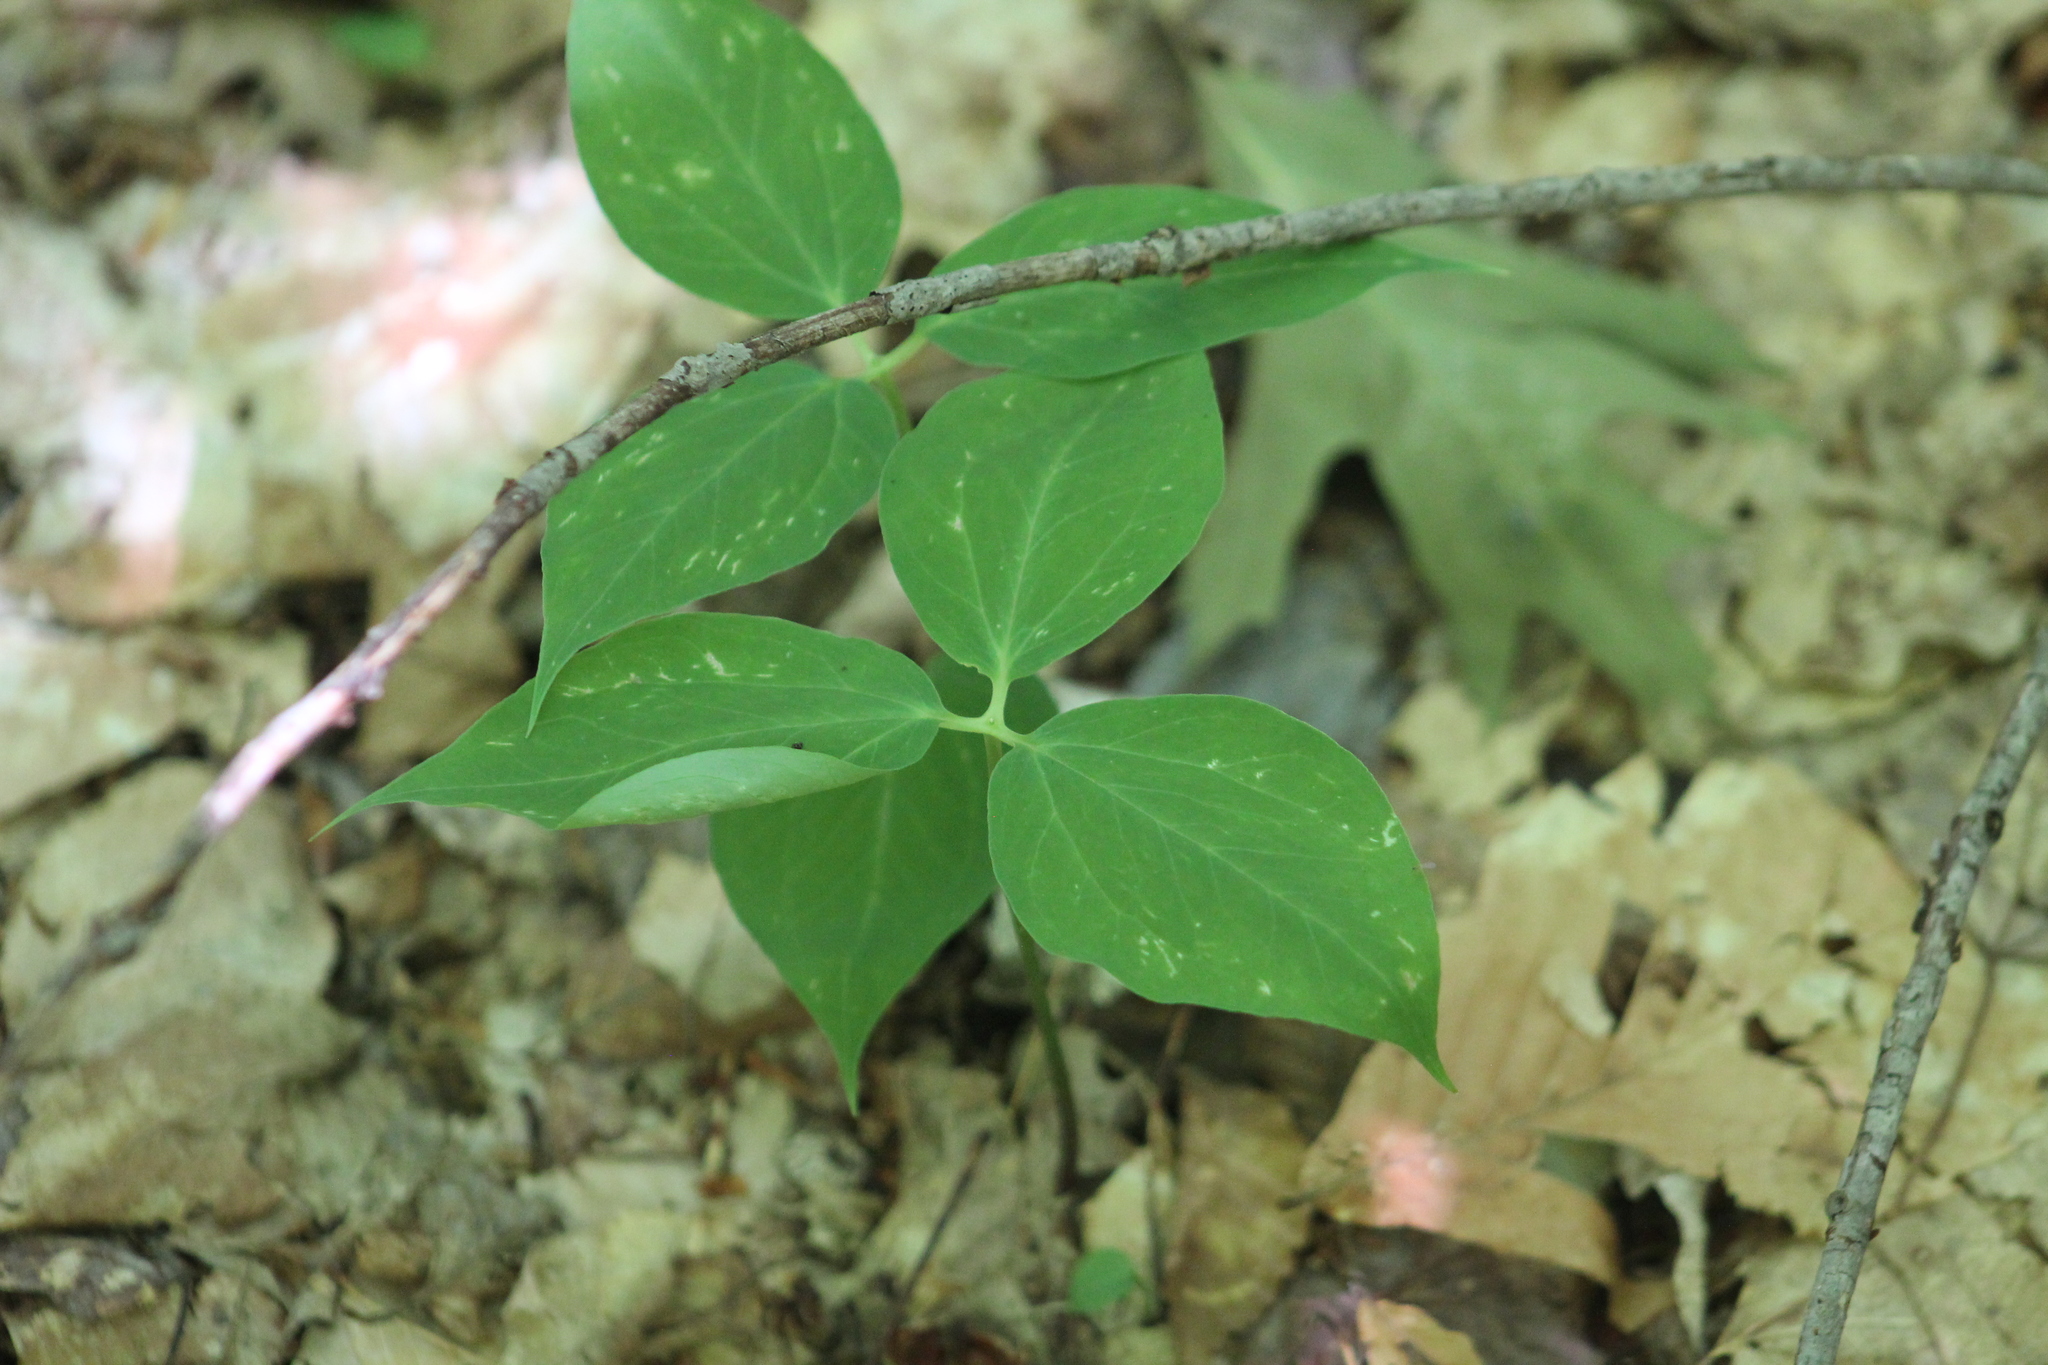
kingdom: Plantae
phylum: Tracheophyta
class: Liliopsida
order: Liliales
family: Melanthiaceae
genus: Trillium
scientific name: Trillium undulatum
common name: Paint trillium
